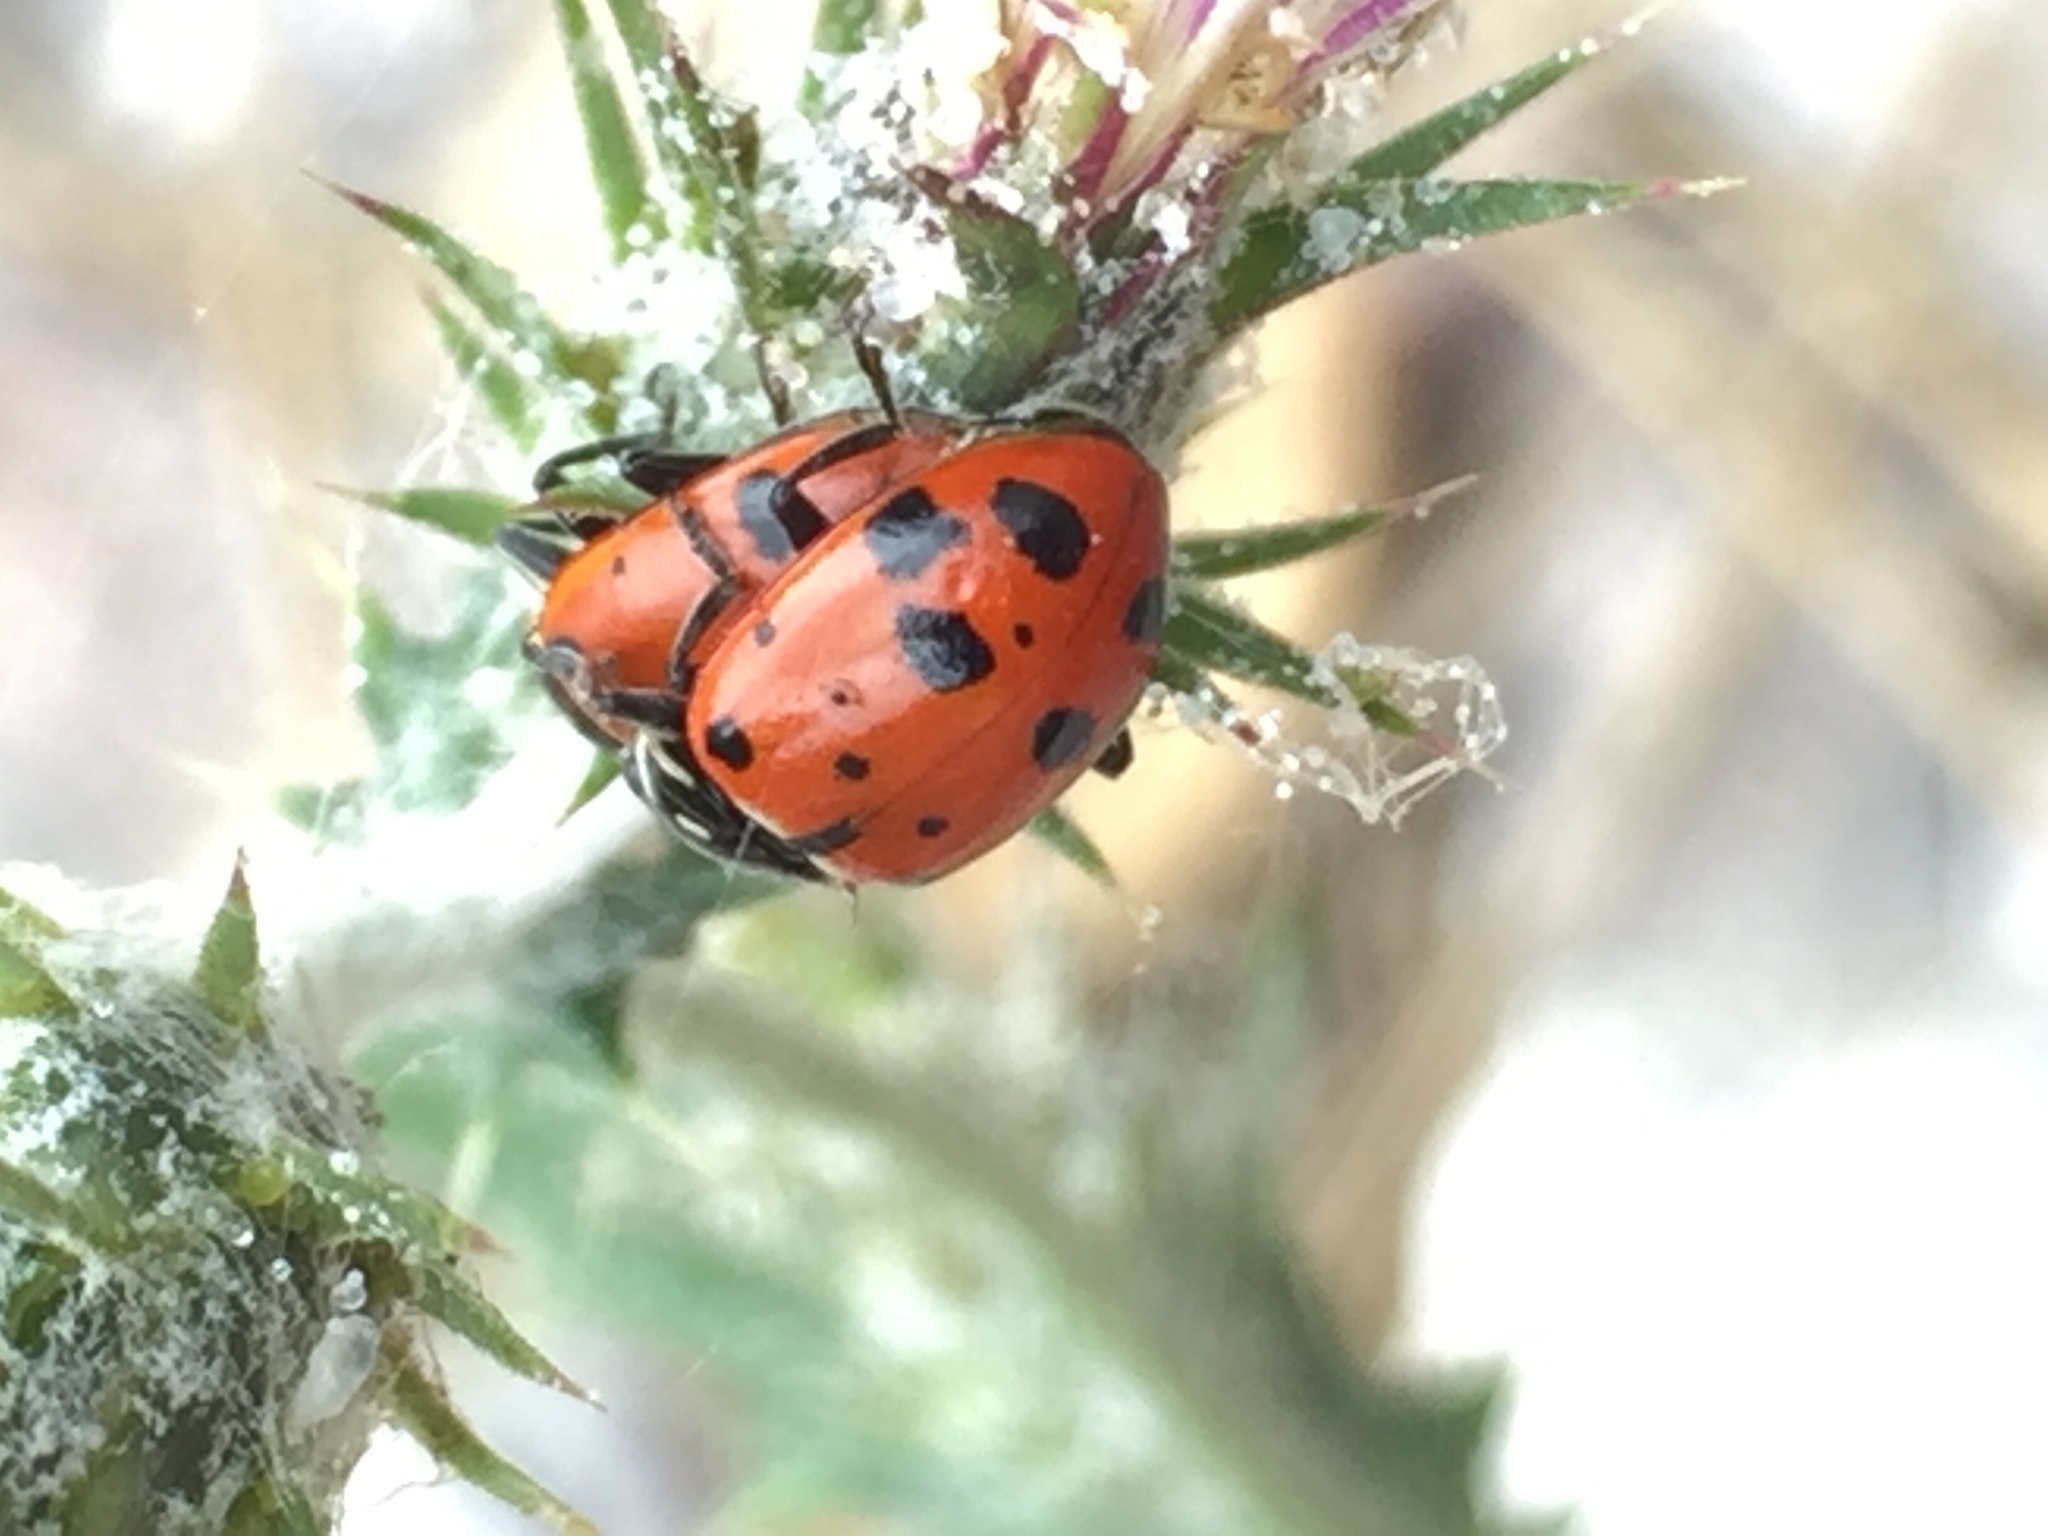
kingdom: Animalia
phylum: Arthropoda
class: Insecta
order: Coleoptera
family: Coccinellidae
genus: Hippodamia
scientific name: Hippodamia convergens
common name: Convergent lady beetle
